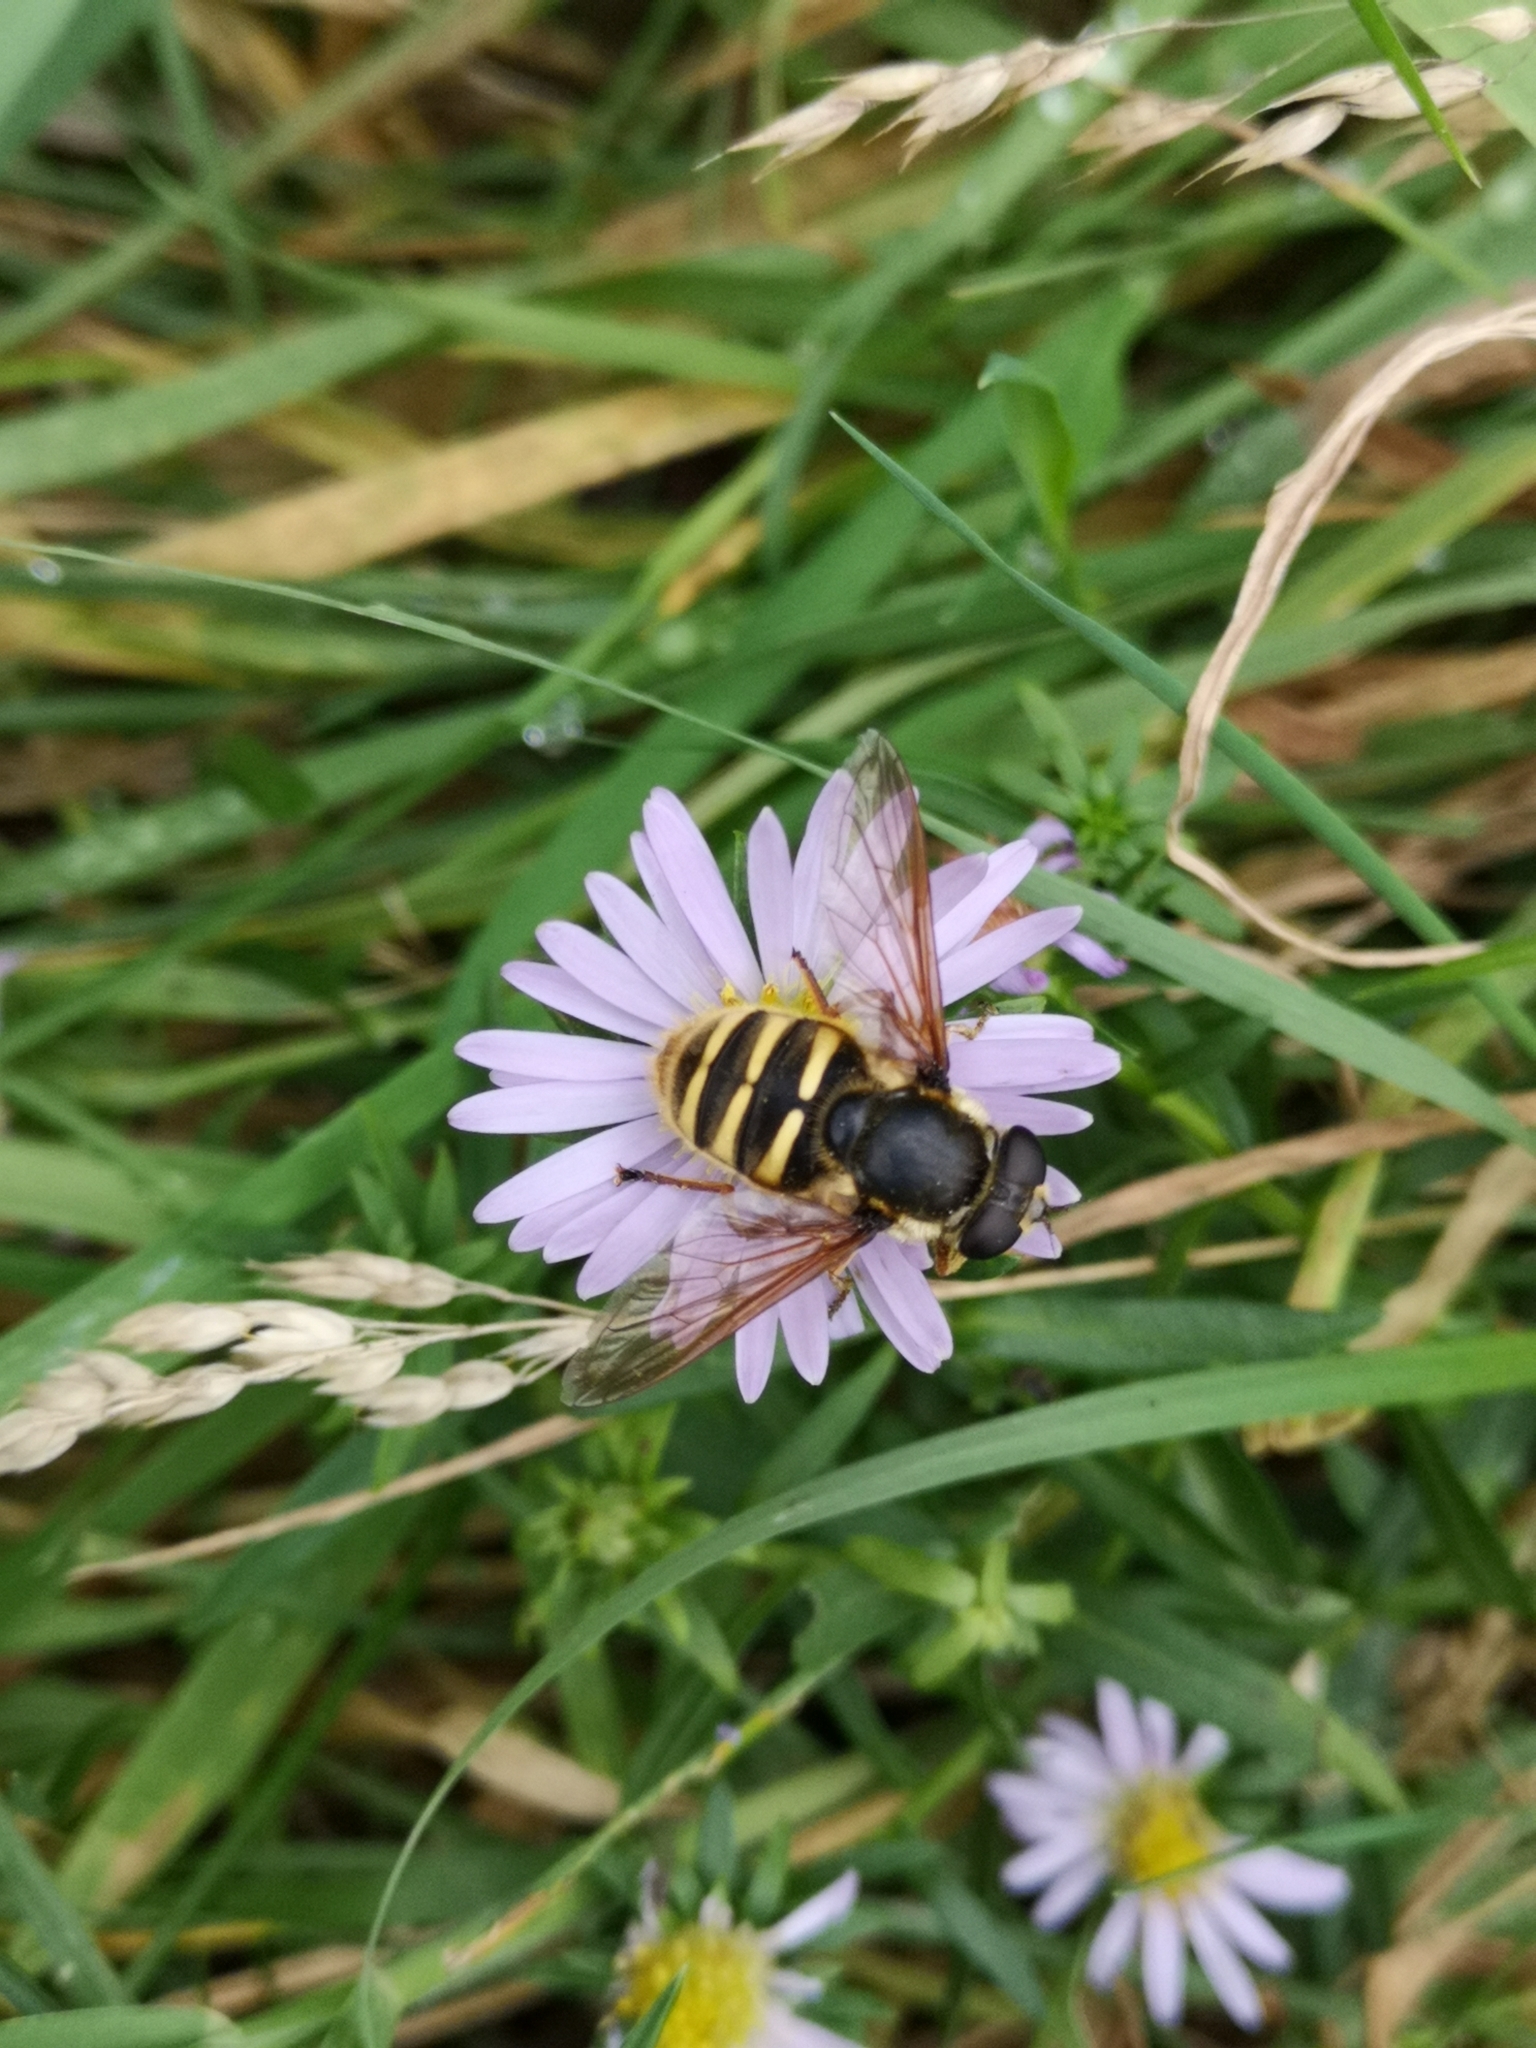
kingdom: Animalia
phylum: Arthropoda
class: Insecta
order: Diptera
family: Syrphidae
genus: Sericomyia
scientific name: Sericomyia silentis
